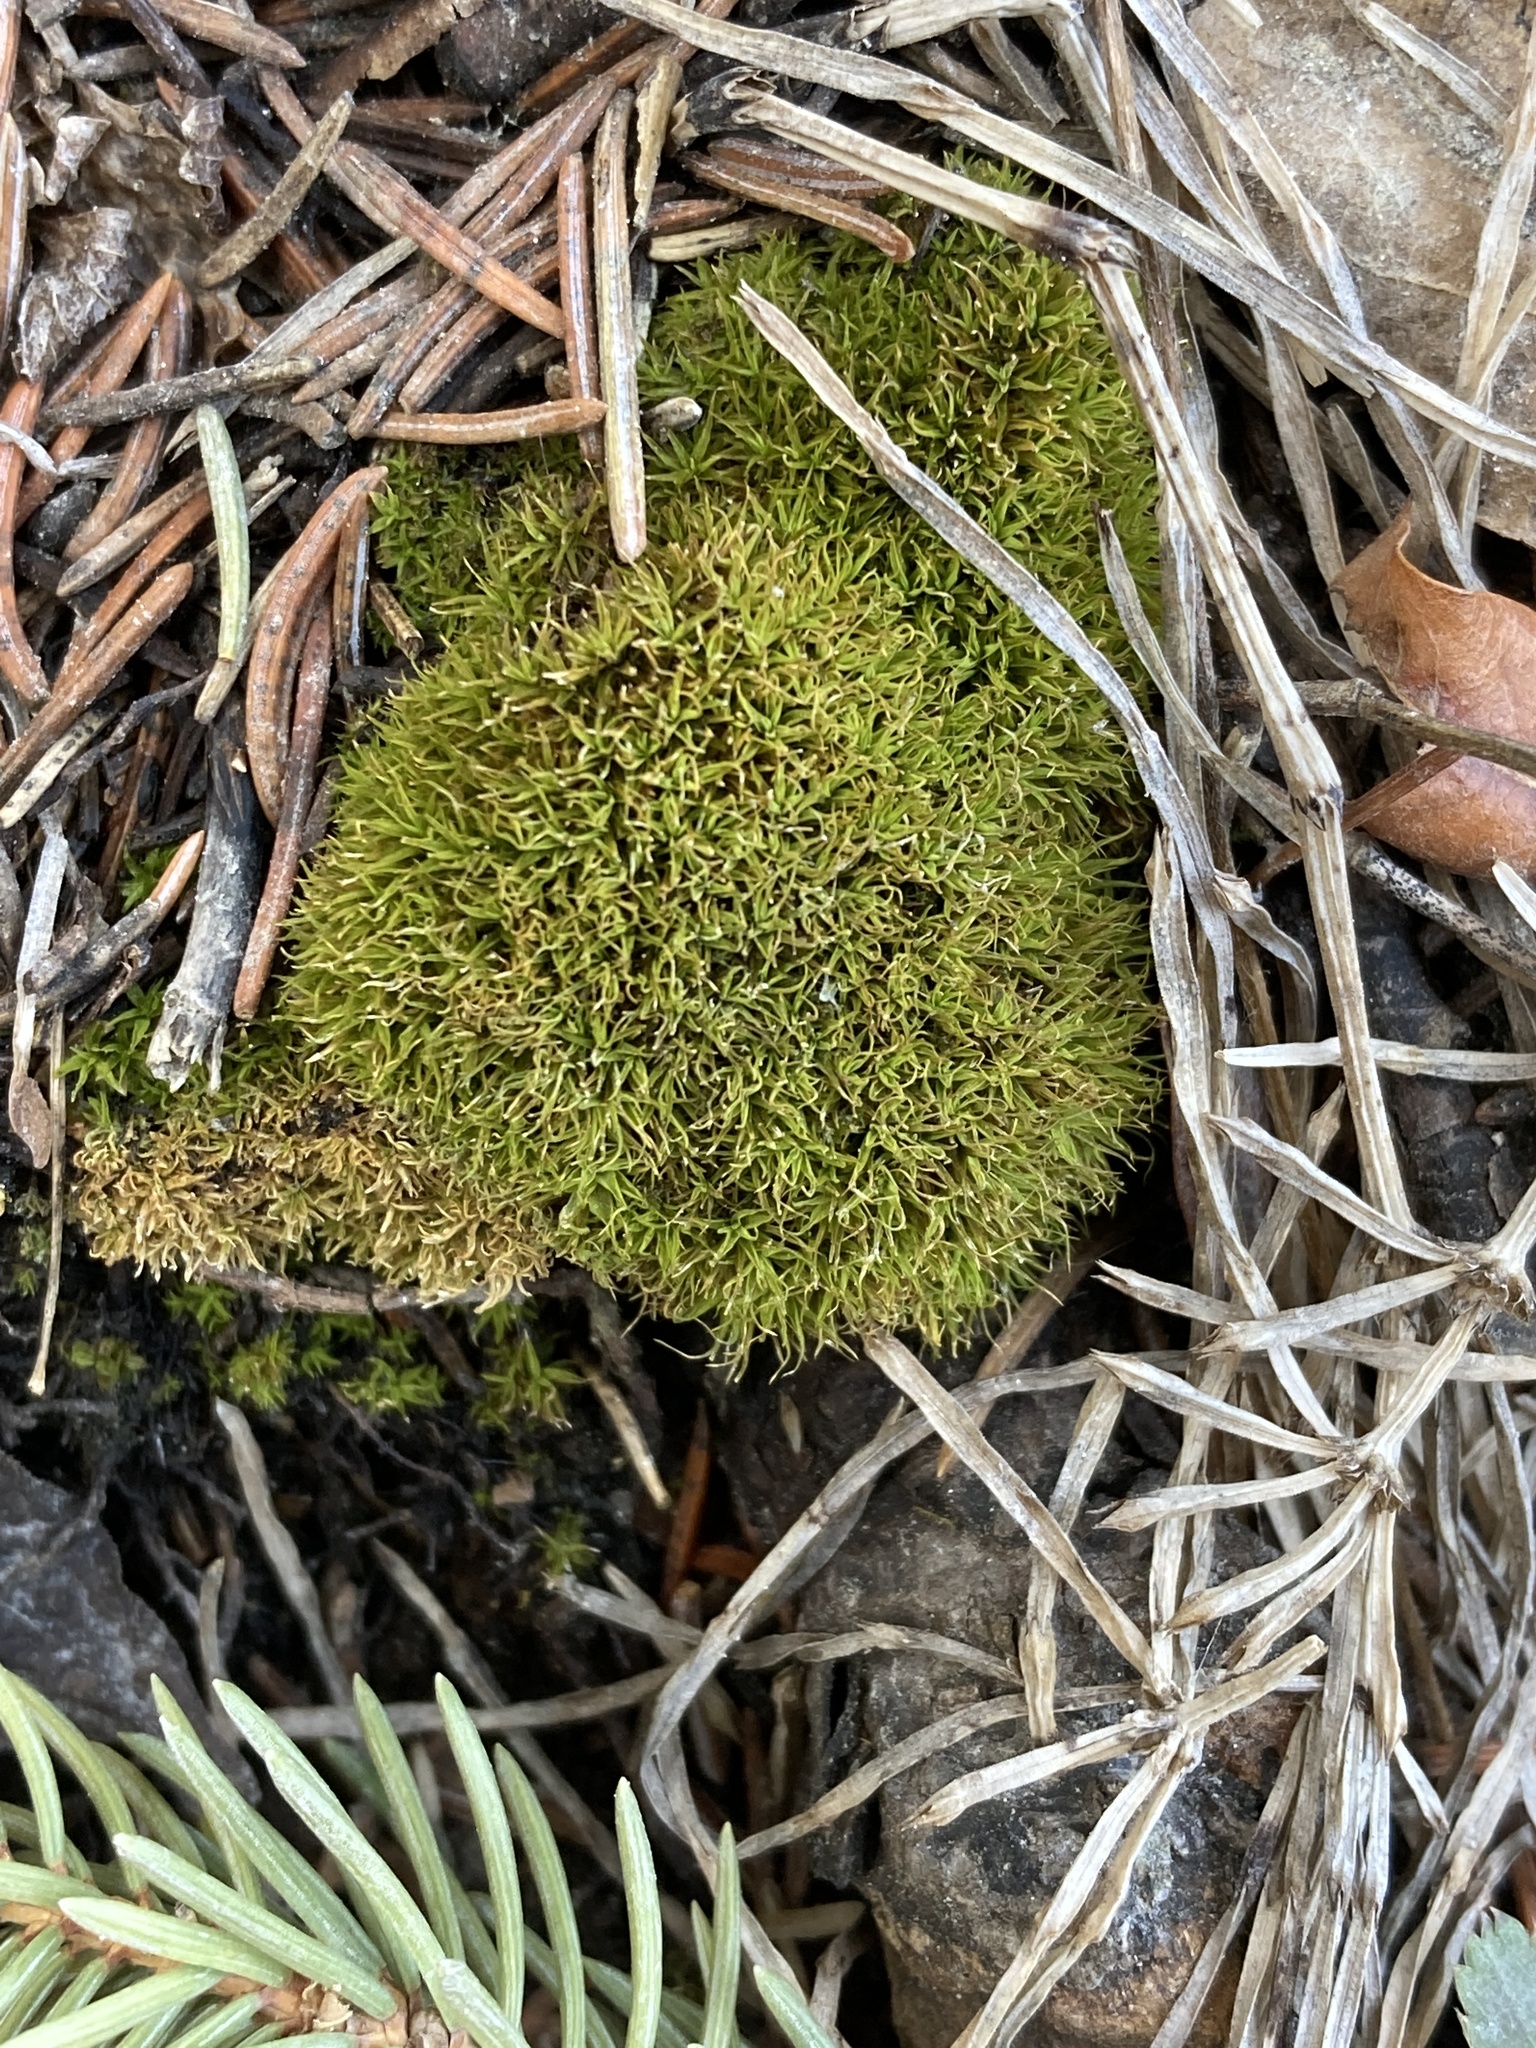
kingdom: Plantae
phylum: Bryophyta
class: Bryopsida
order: Pottiales
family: Pottiaceae
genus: Tortella
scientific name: Tortella fragilis
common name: Fragile twisted moss
